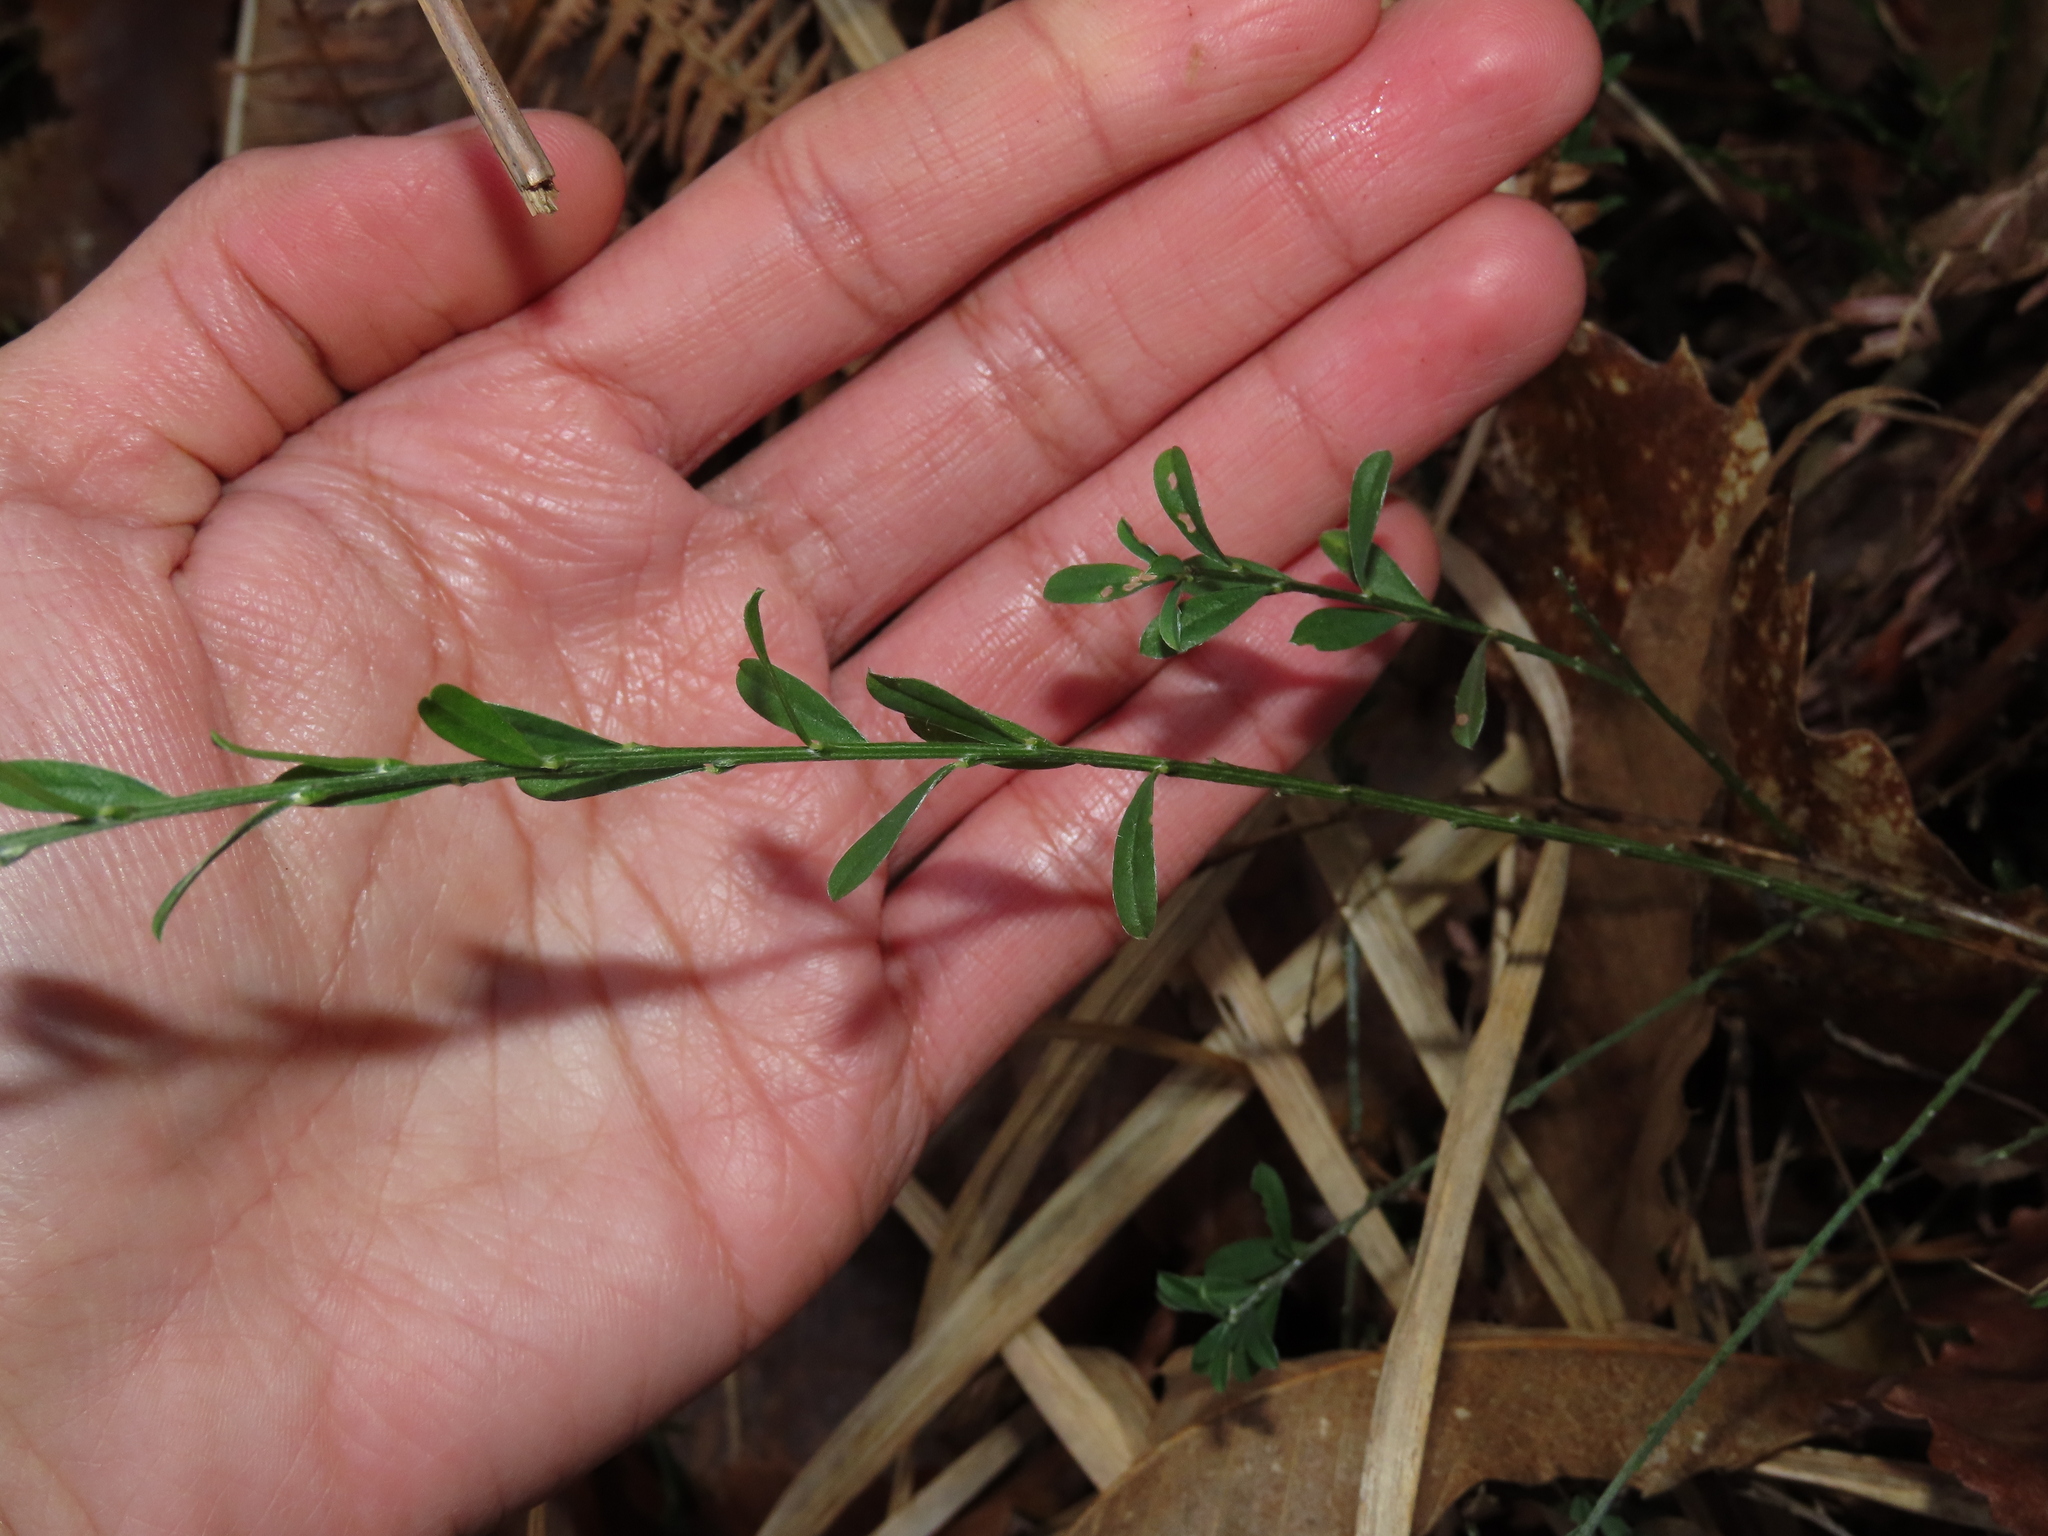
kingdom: Plantae
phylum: Tracheophyta
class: Magnoliopsida
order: Fabales
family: Fabaceae
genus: Genista
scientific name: Genista pilosa
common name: Hairy greenweed
